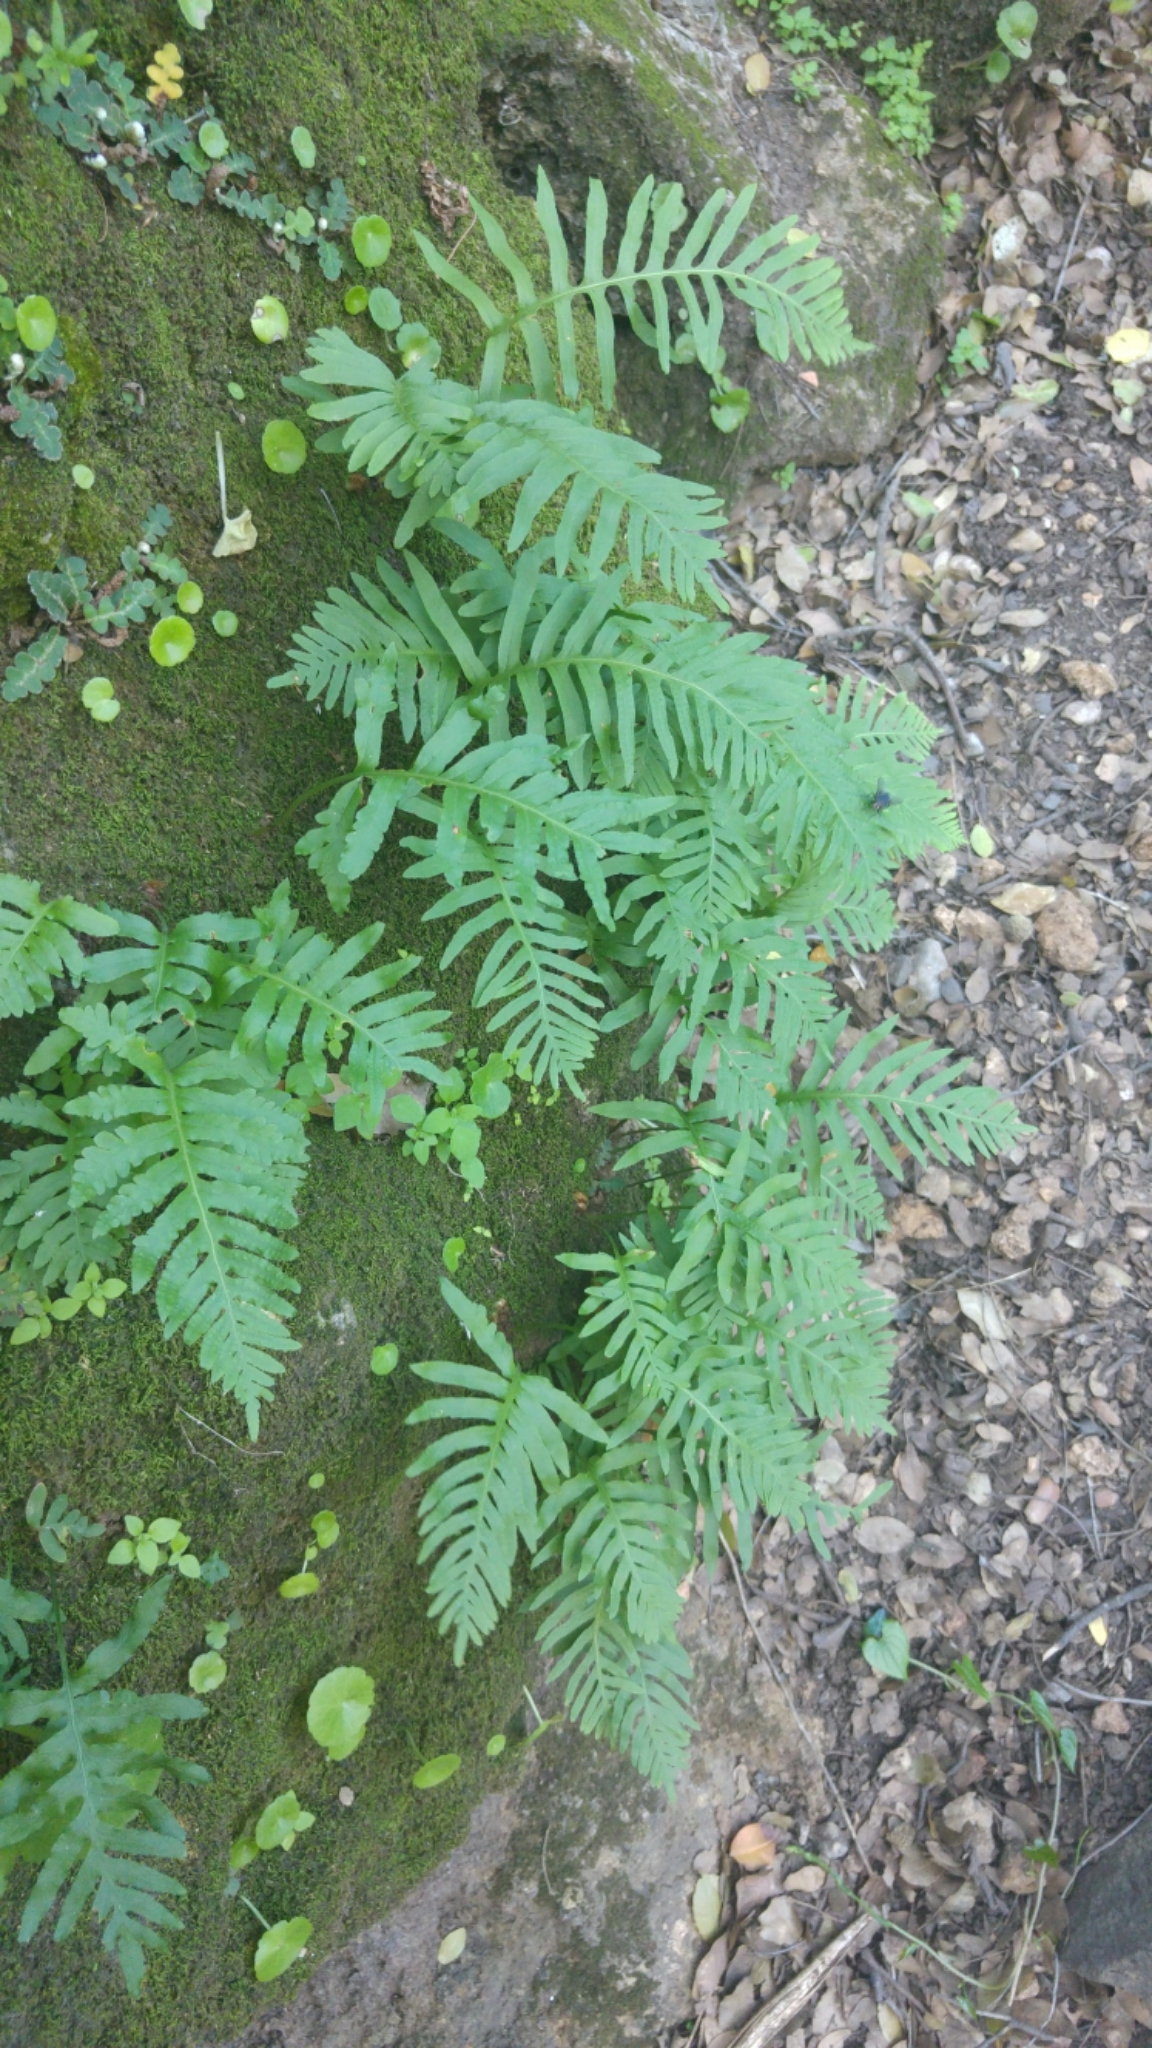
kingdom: Plantae
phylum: Tracheophyta
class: Polypodiopsida
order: Polypodiales
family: Polypodiaceae
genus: Polypodium
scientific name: Polypodium cambricum
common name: Southern polypody
